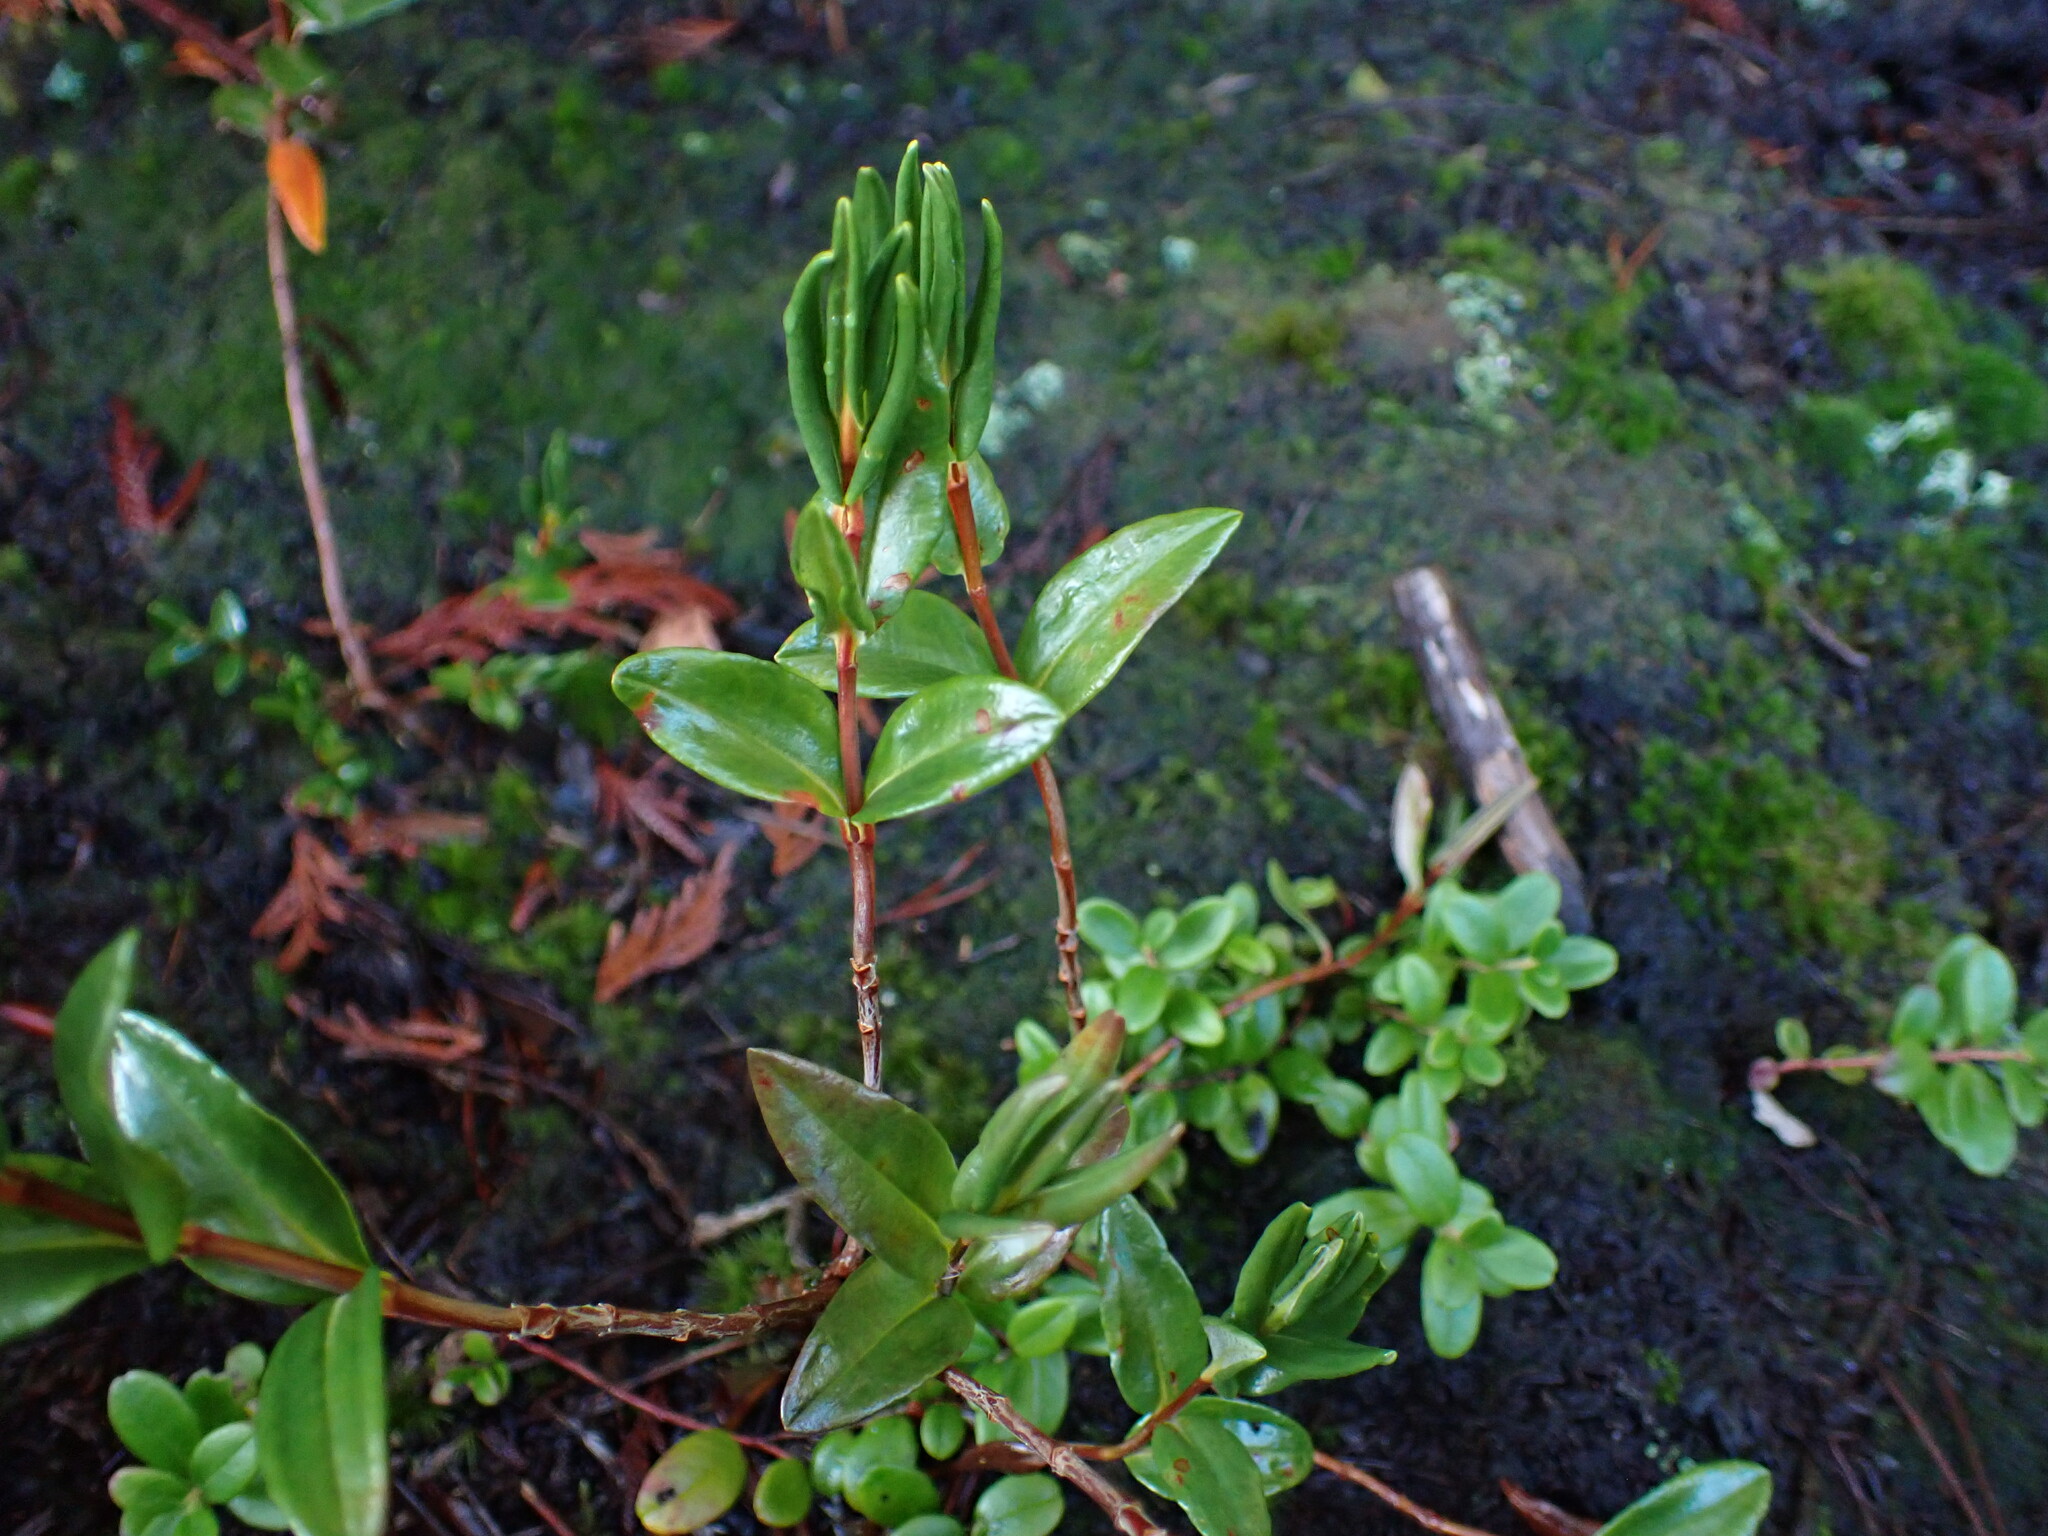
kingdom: Plantae
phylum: Tracheophyta
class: Magnoliopsida
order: Ericales
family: Ericaceae
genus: Kalmia
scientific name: Kalmia microphylla
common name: Alpine bog laurel
